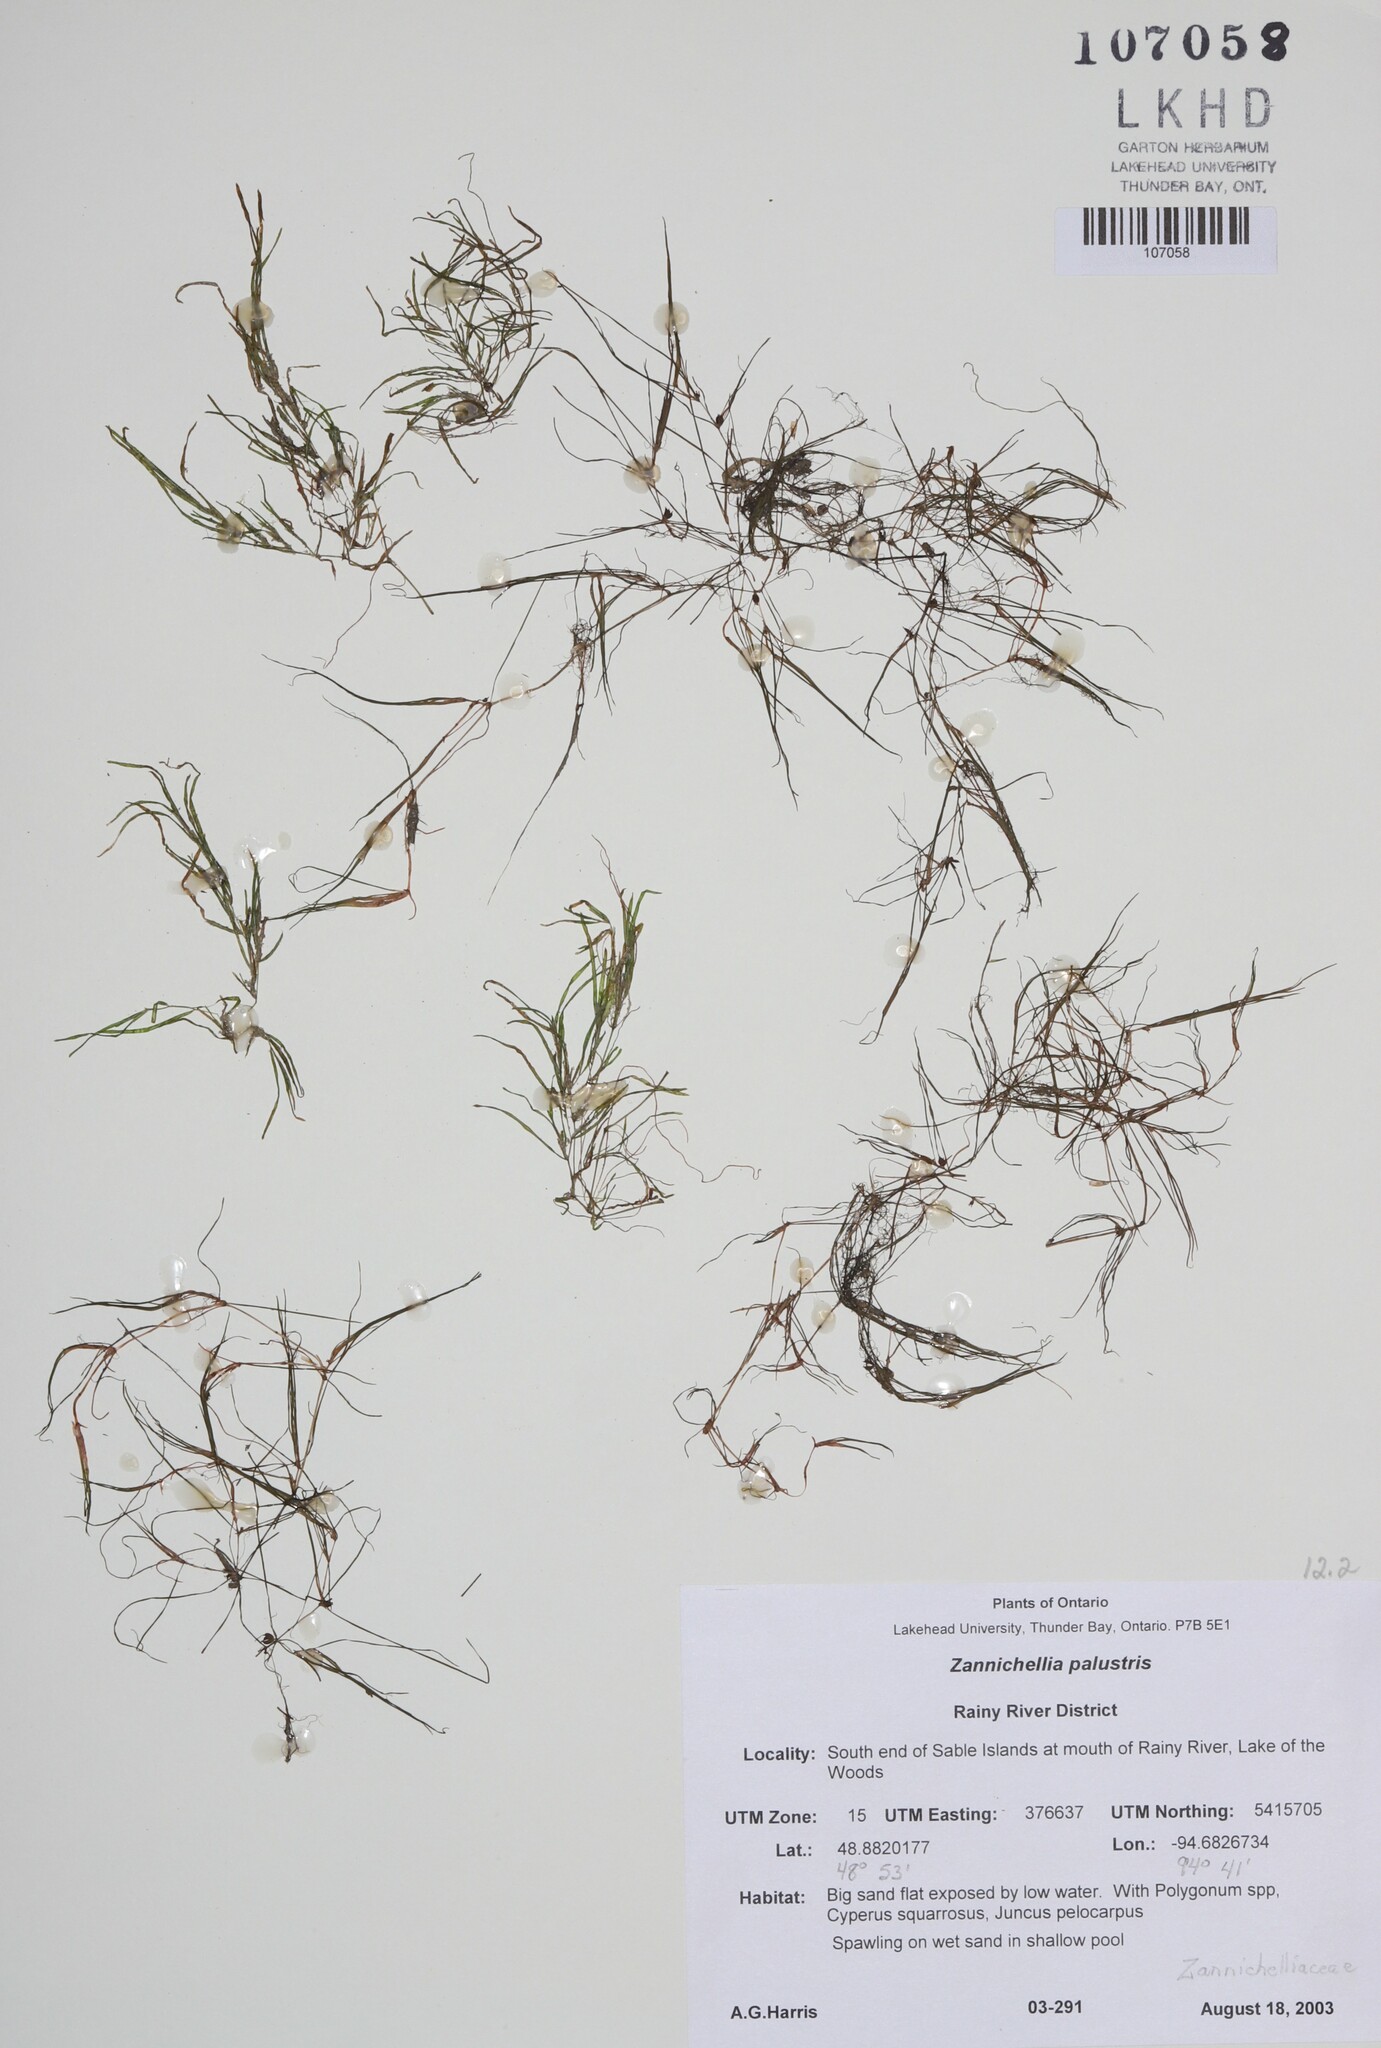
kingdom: Plantae
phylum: Tracheophyta
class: Liliopsida
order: Alismatales
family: Potamogetonaceae
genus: Zannichellia
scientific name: Zannichellia palustris
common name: Horned pondweed
